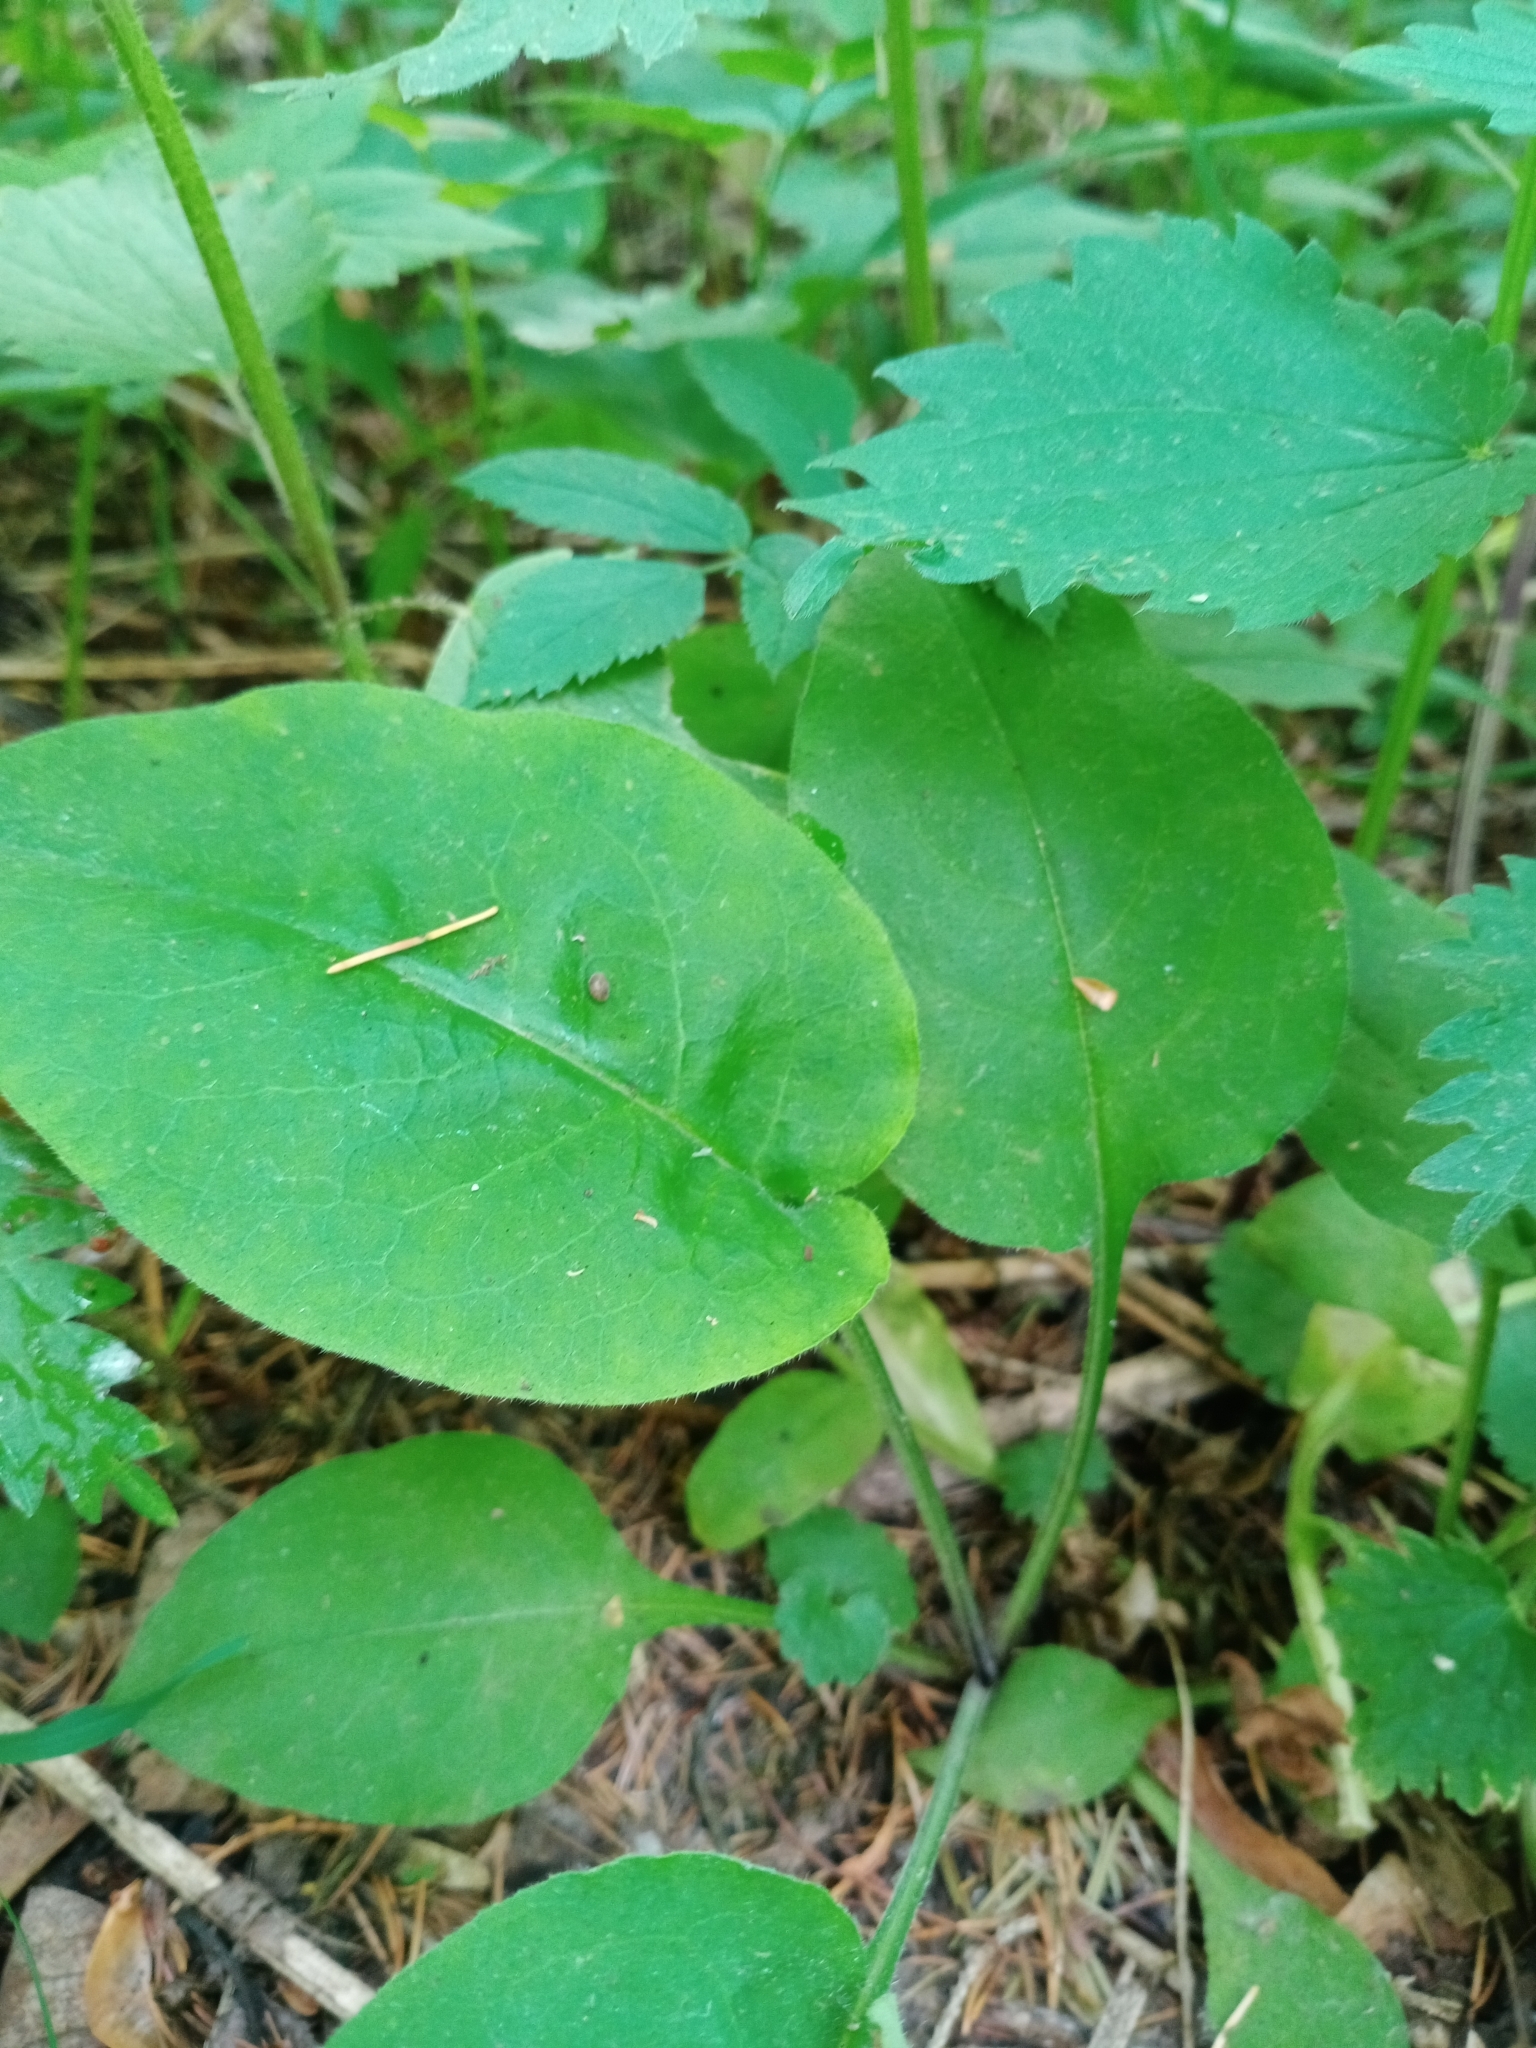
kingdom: Plantae
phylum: Tracheophyta
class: Magnoliopsida
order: Boraginales
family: Boraginaceae
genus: Pulmonaria
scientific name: Pulmonaria obscura
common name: Suffolk lungwort
